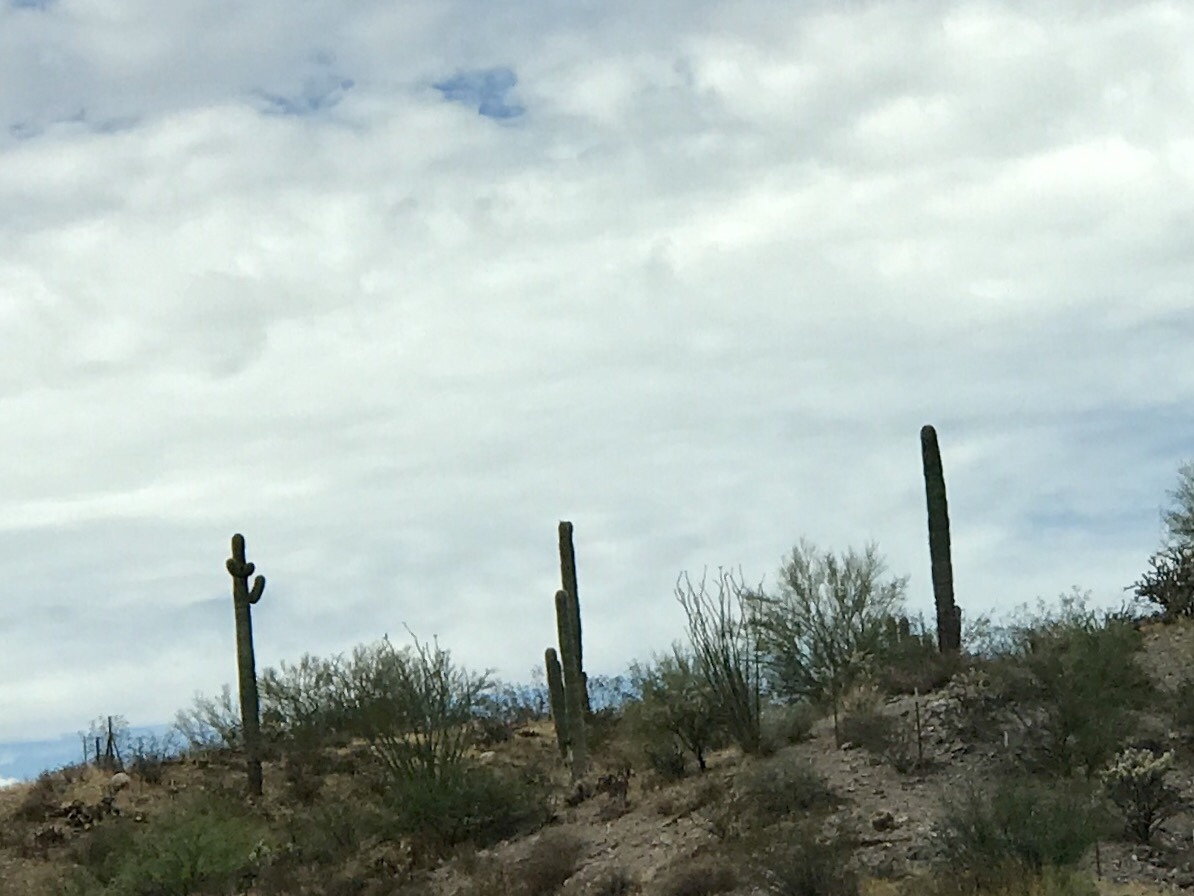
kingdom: Plantae
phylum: Tracheophyta
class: Magnoliopsida
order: Caryophyllales
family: Cactaceae
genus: Carnegiea
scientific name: Carnegiea gigantea
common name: Saguaro
